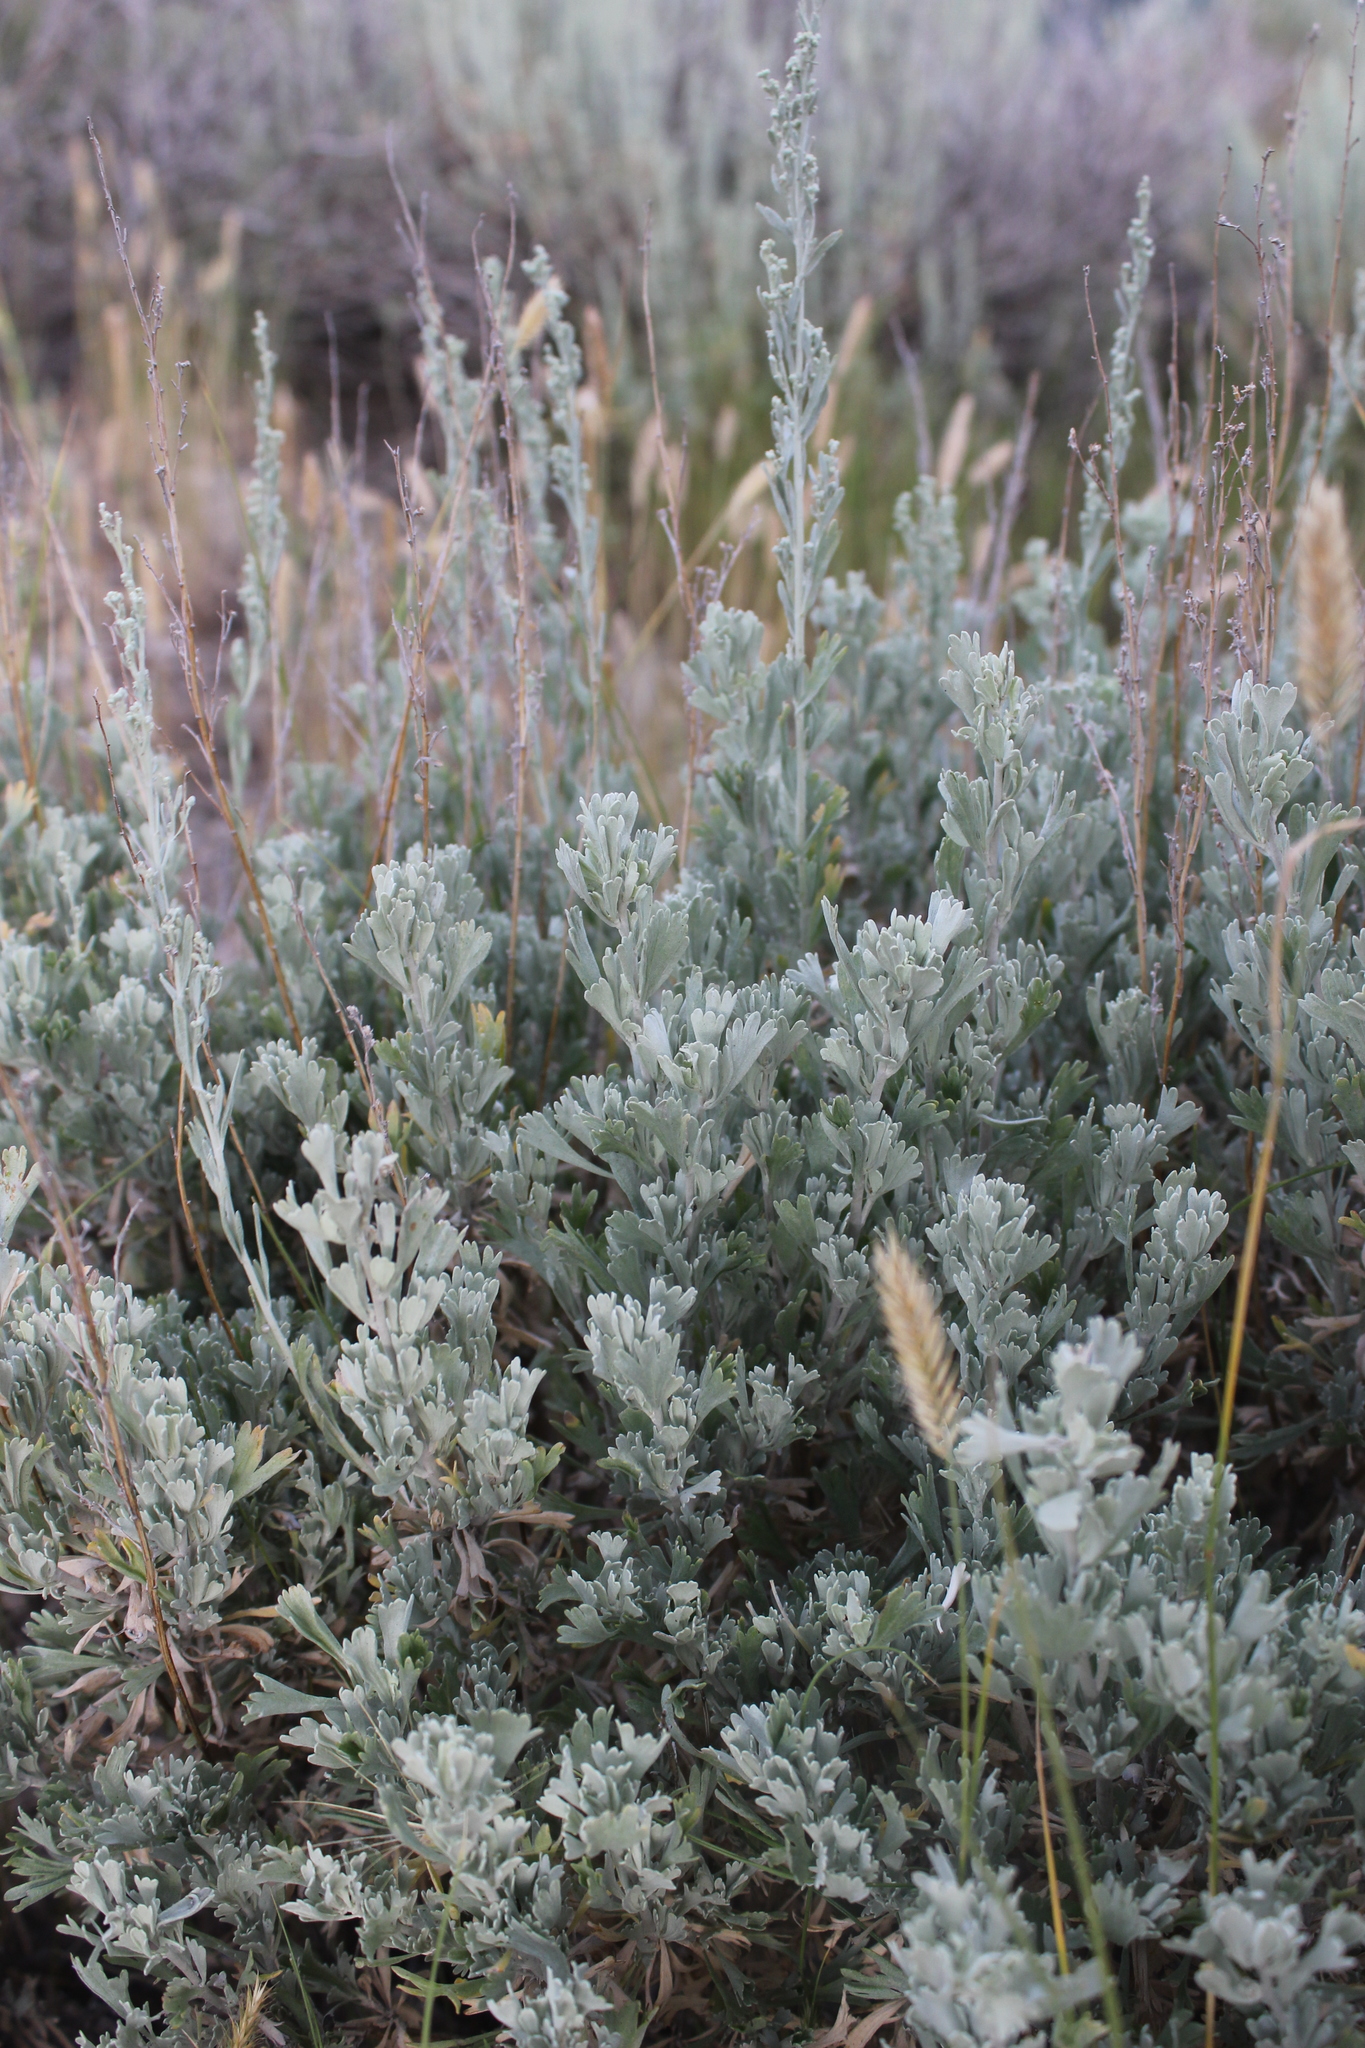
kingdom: Plantae
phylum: Tracheophyta
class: Magnoliopsida
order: Asterales
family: Asteraceae
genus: Artemisia
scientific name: Artemisia tridentata
